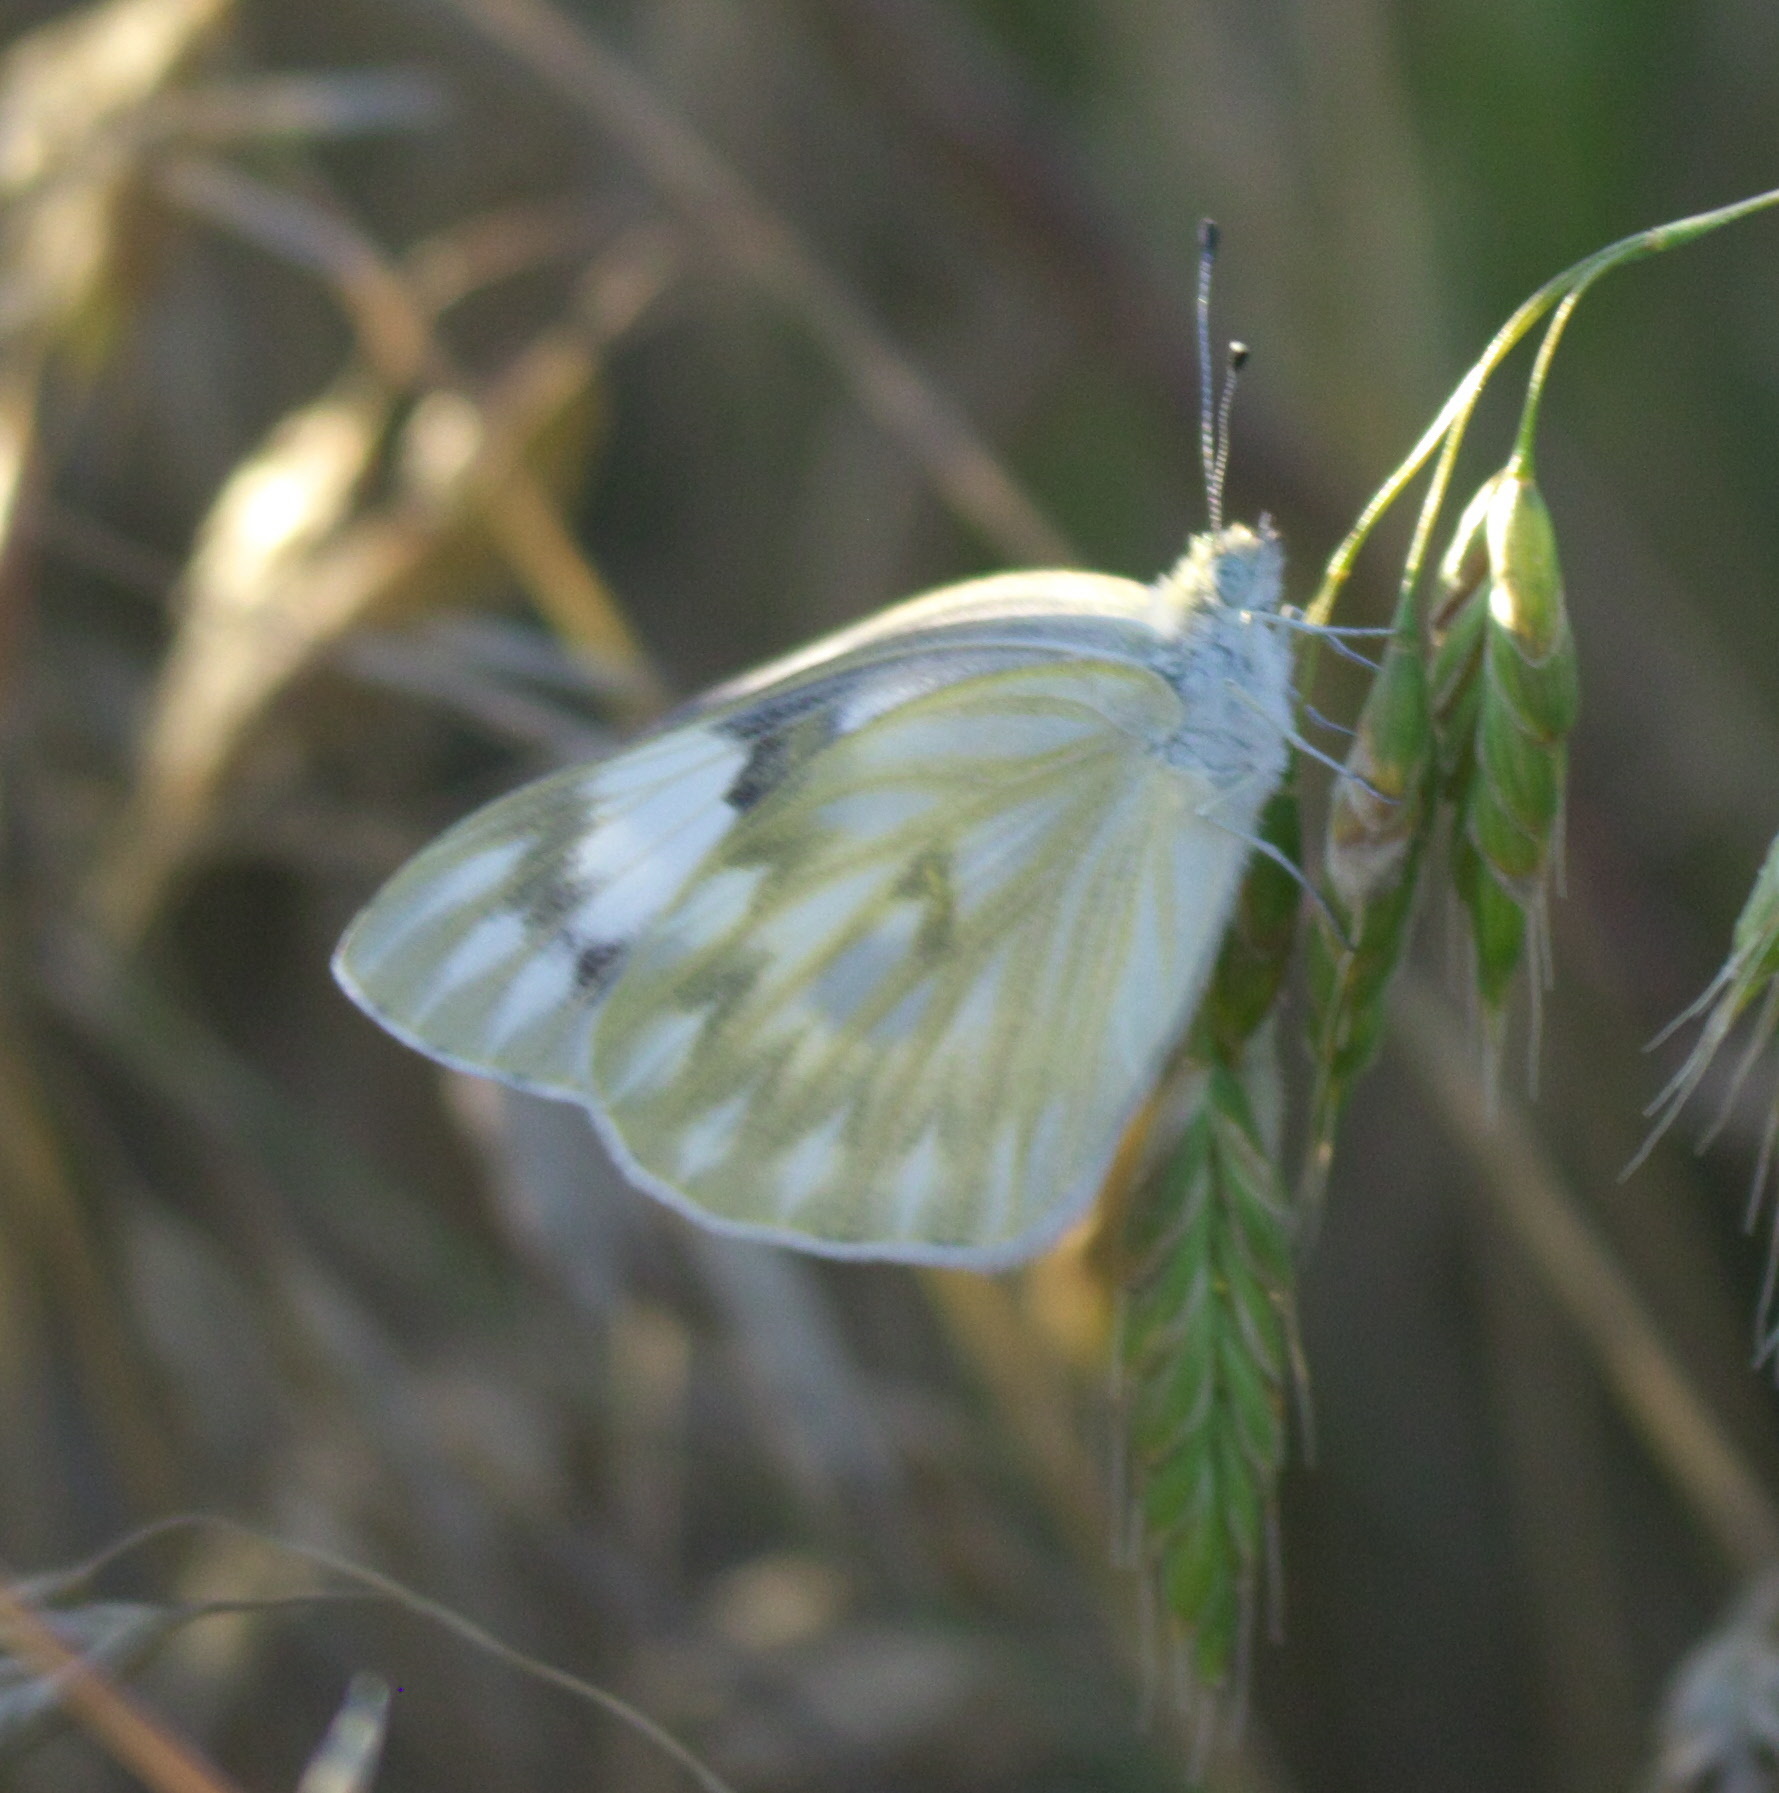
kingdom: Animalia
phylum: Arthropoda
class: Insecta
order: Lepidoptera
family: Pieridae
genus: Pontia
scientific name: Pontia protodice
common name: Checkered white
